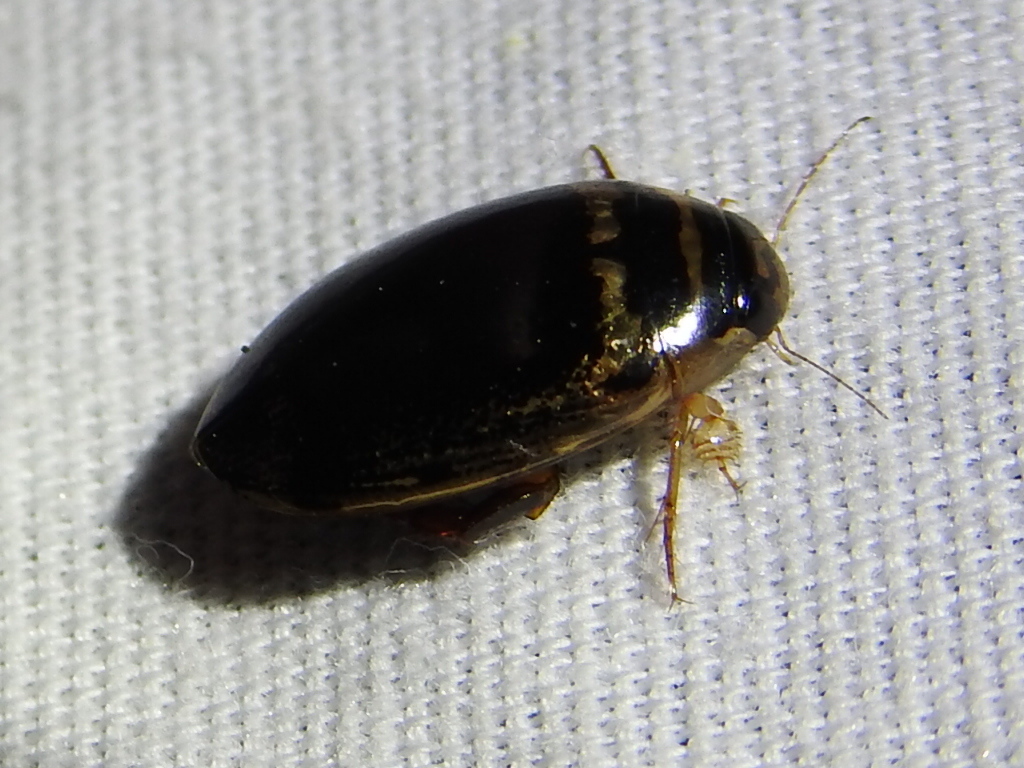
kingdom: Animalia
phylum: Arthropoda
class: Insecta
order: Coleoptera
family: Dytiscidae
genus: Thermonectus
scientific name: Thermonectus basillaris
